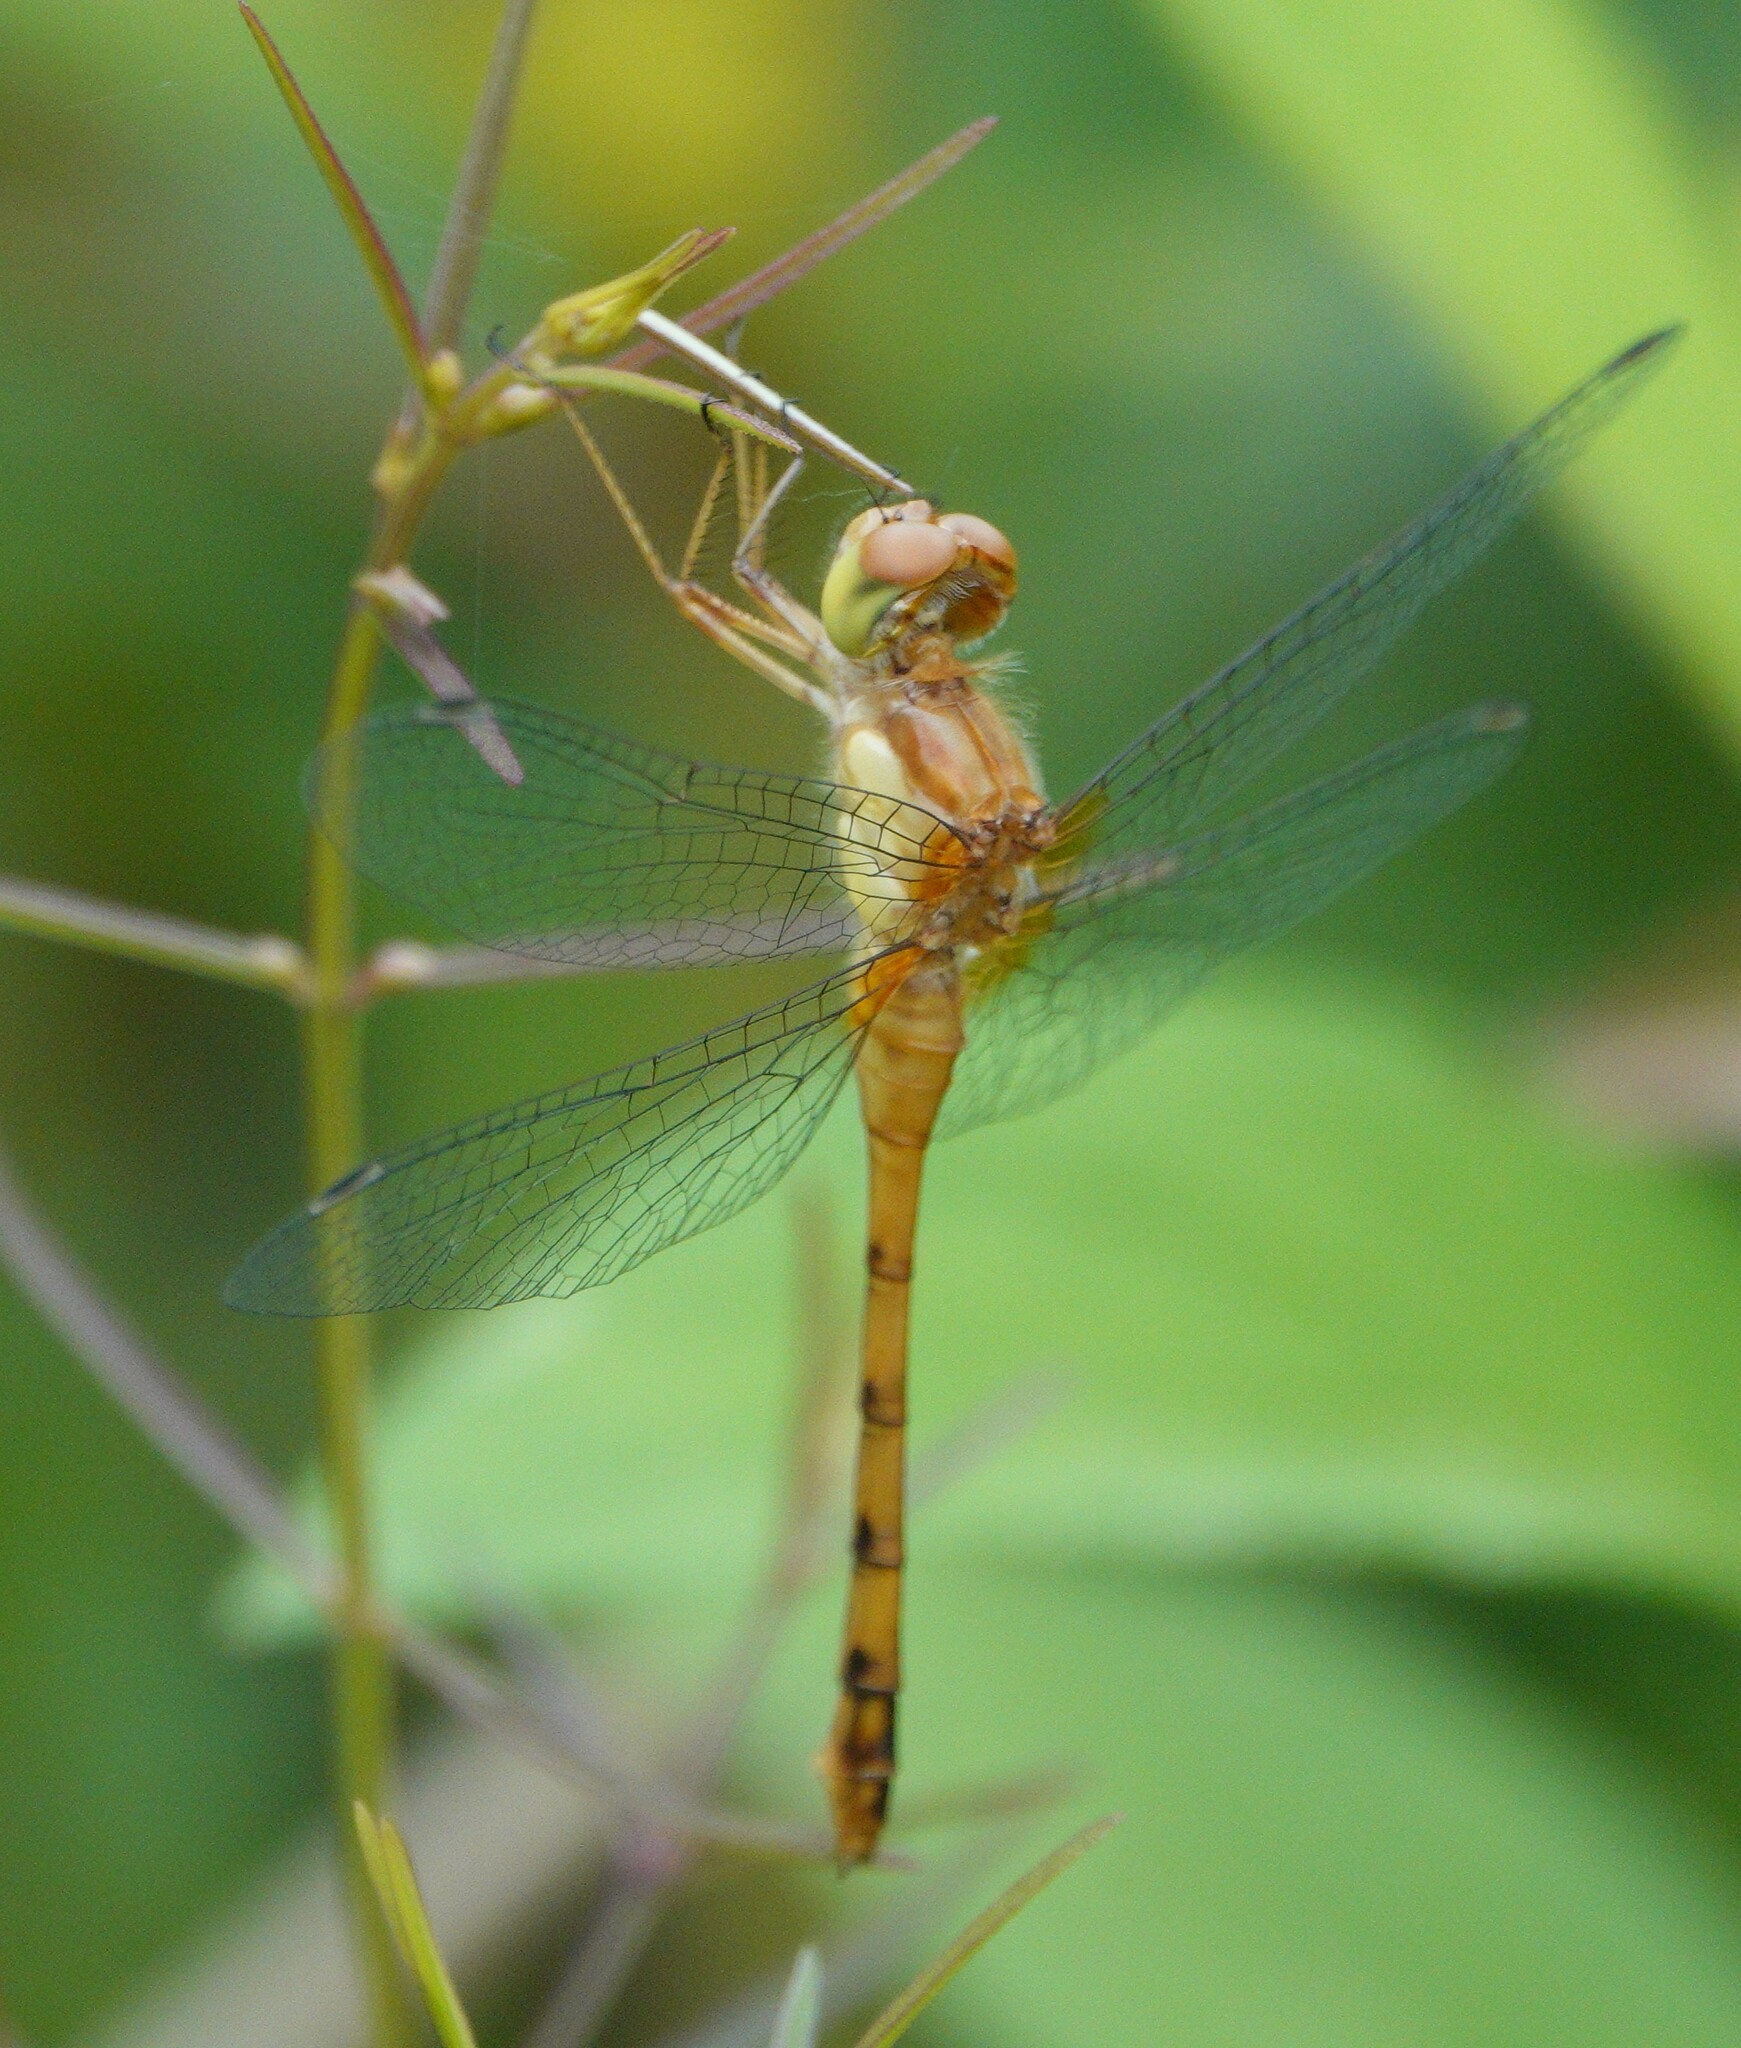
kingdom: Animalia
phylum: Arthropoda
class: Insecta
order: Odonata
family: Libellulidae
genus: Sympetrum
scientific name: Sympetrum vicinum
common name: Autumn meadowhawk
